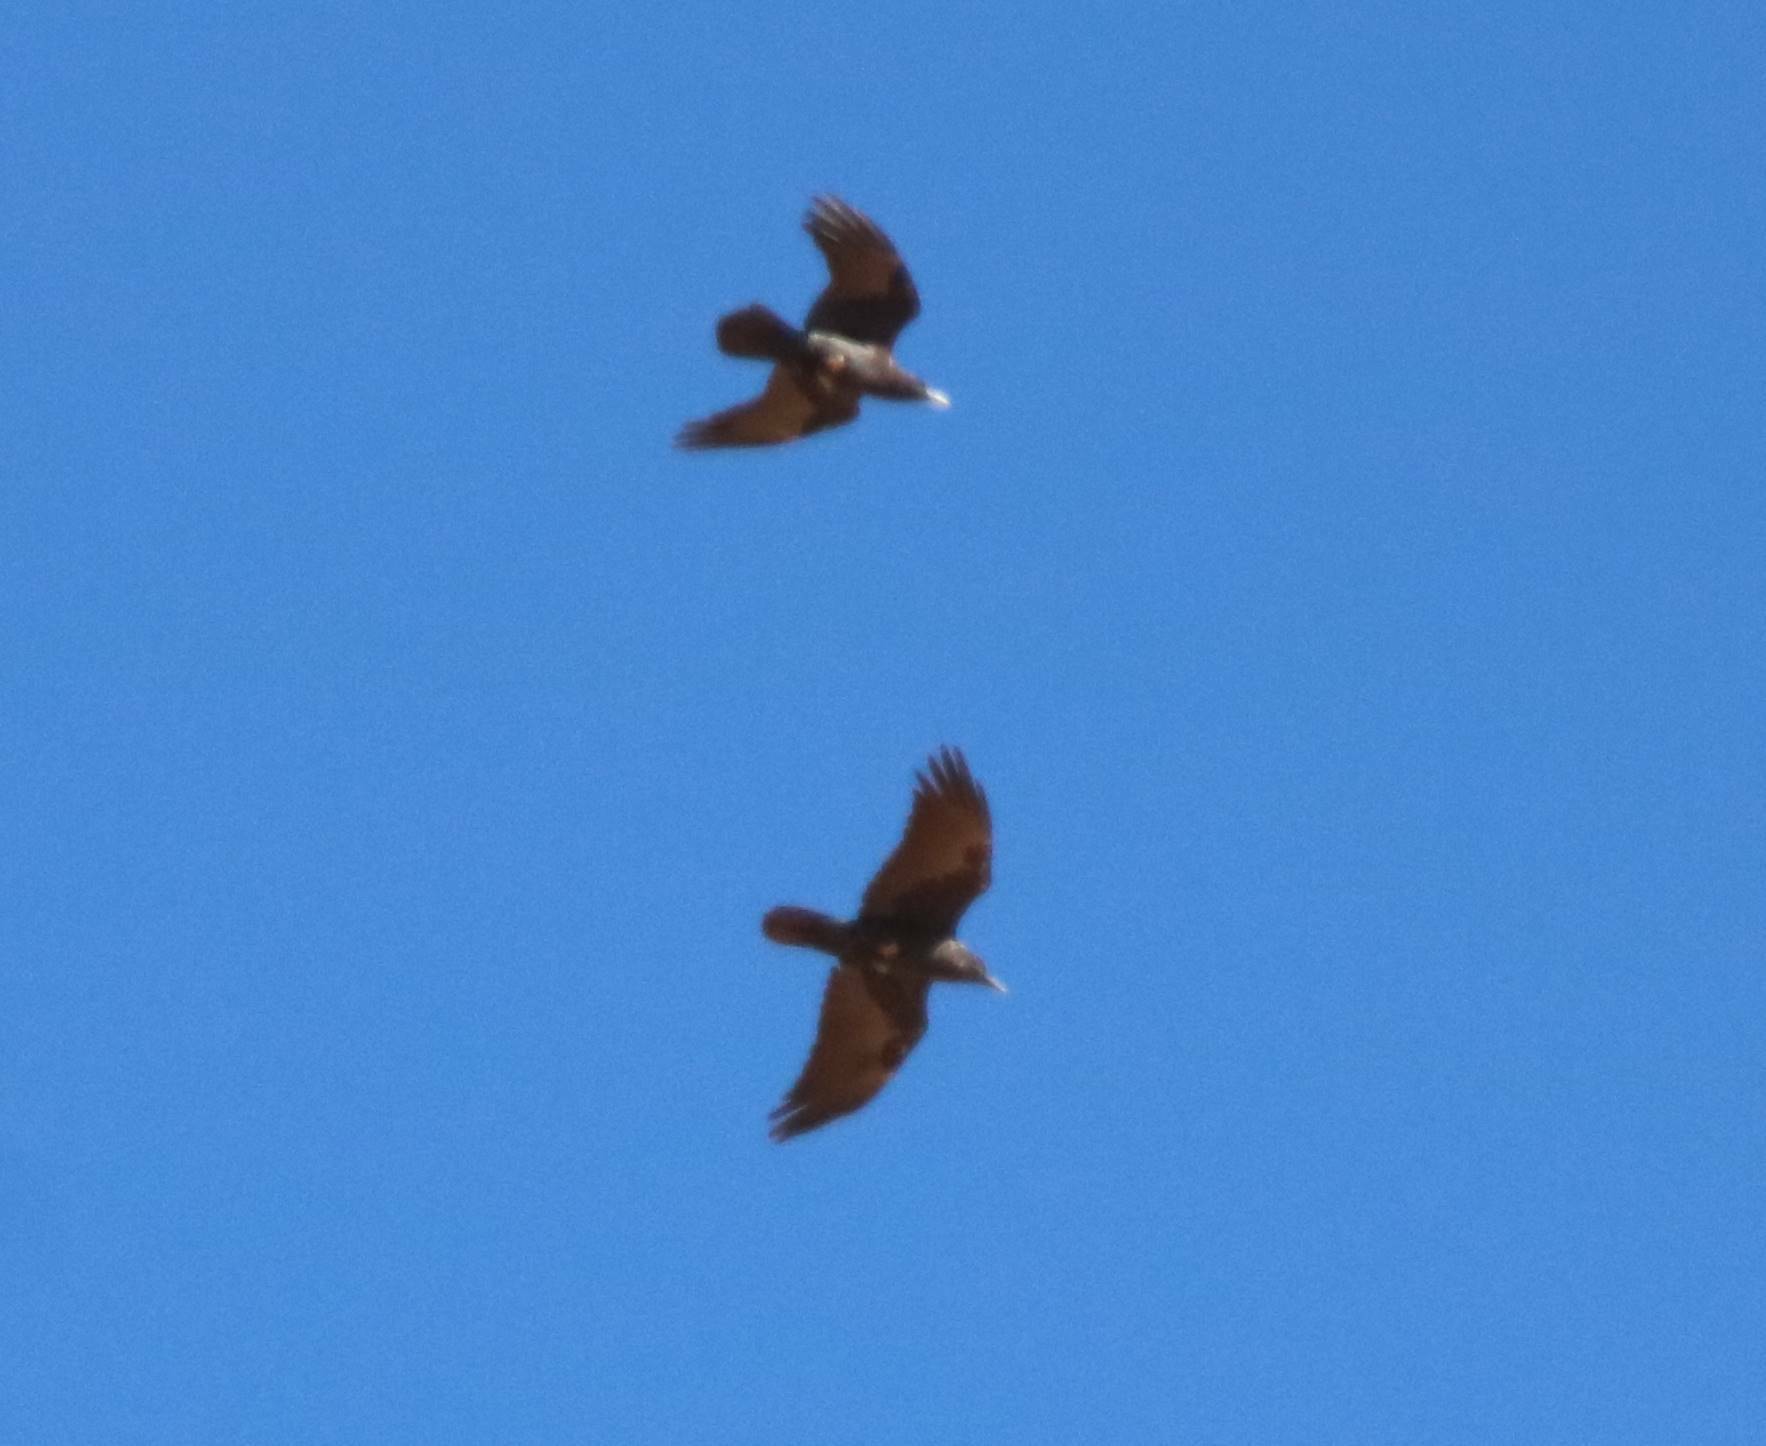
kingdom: Animalia
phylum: Chordata
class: Aves
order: Passeriformes
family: Corvidae
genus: Corvus
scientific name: Corvus ruficollis
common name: Brown-necked raven
